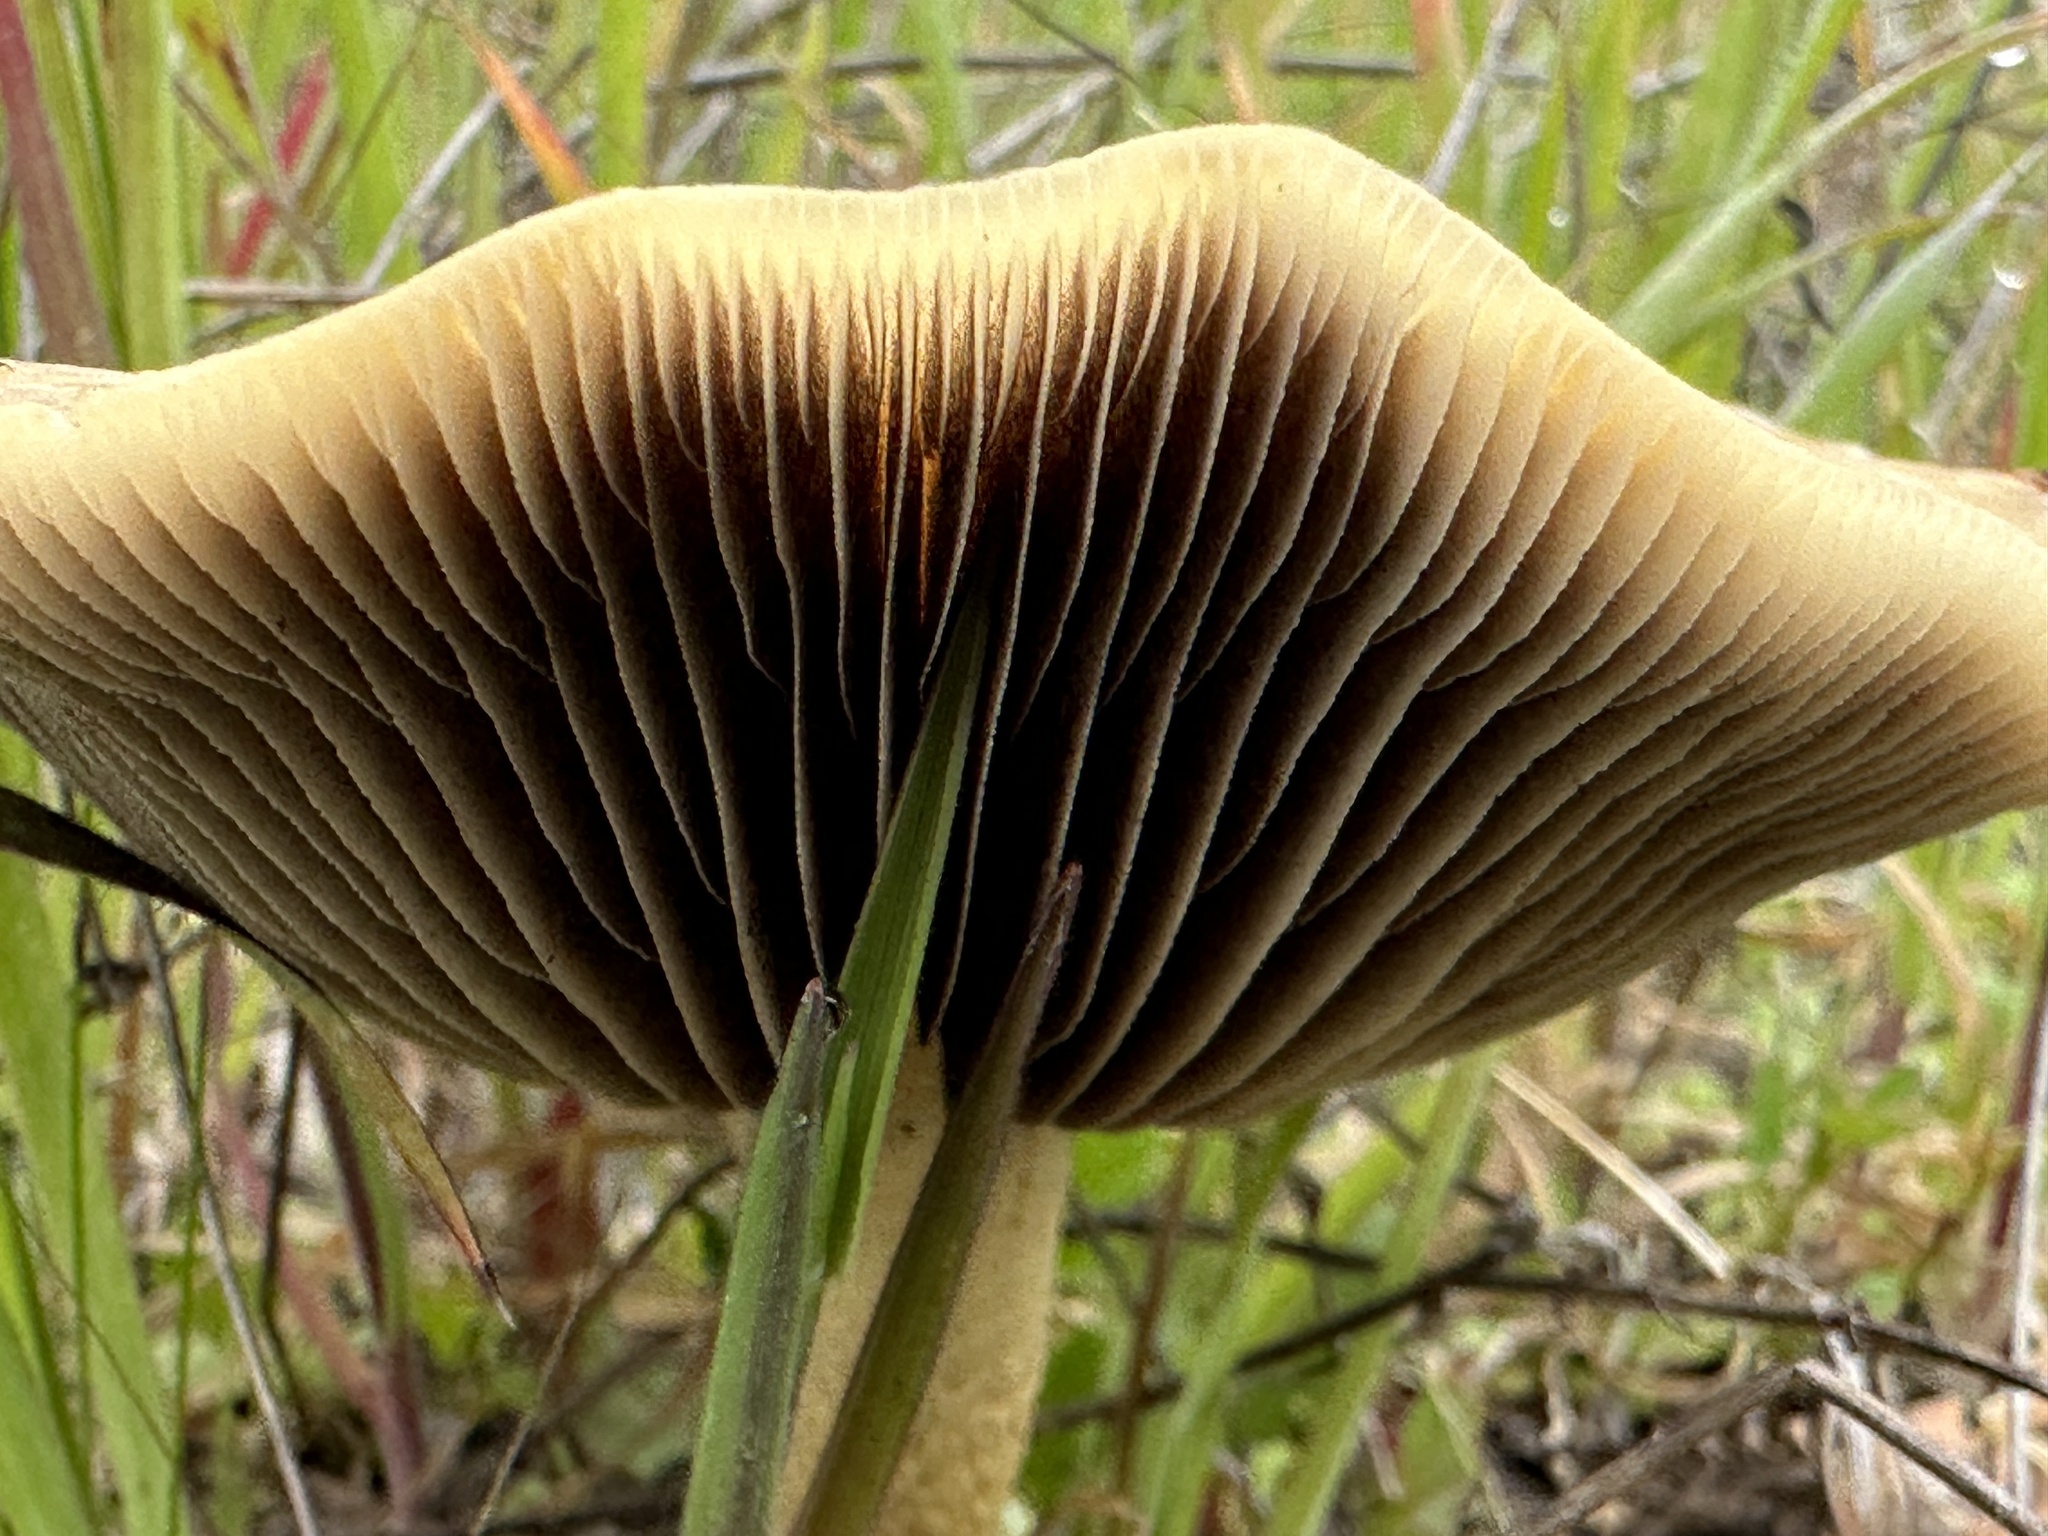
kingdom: Fungi
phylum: Basidiomycota
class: Agaricomycetes
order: Agaricales
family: Strophariaceae
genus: Leratiomyces
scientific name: Leratiomyces percevalii
